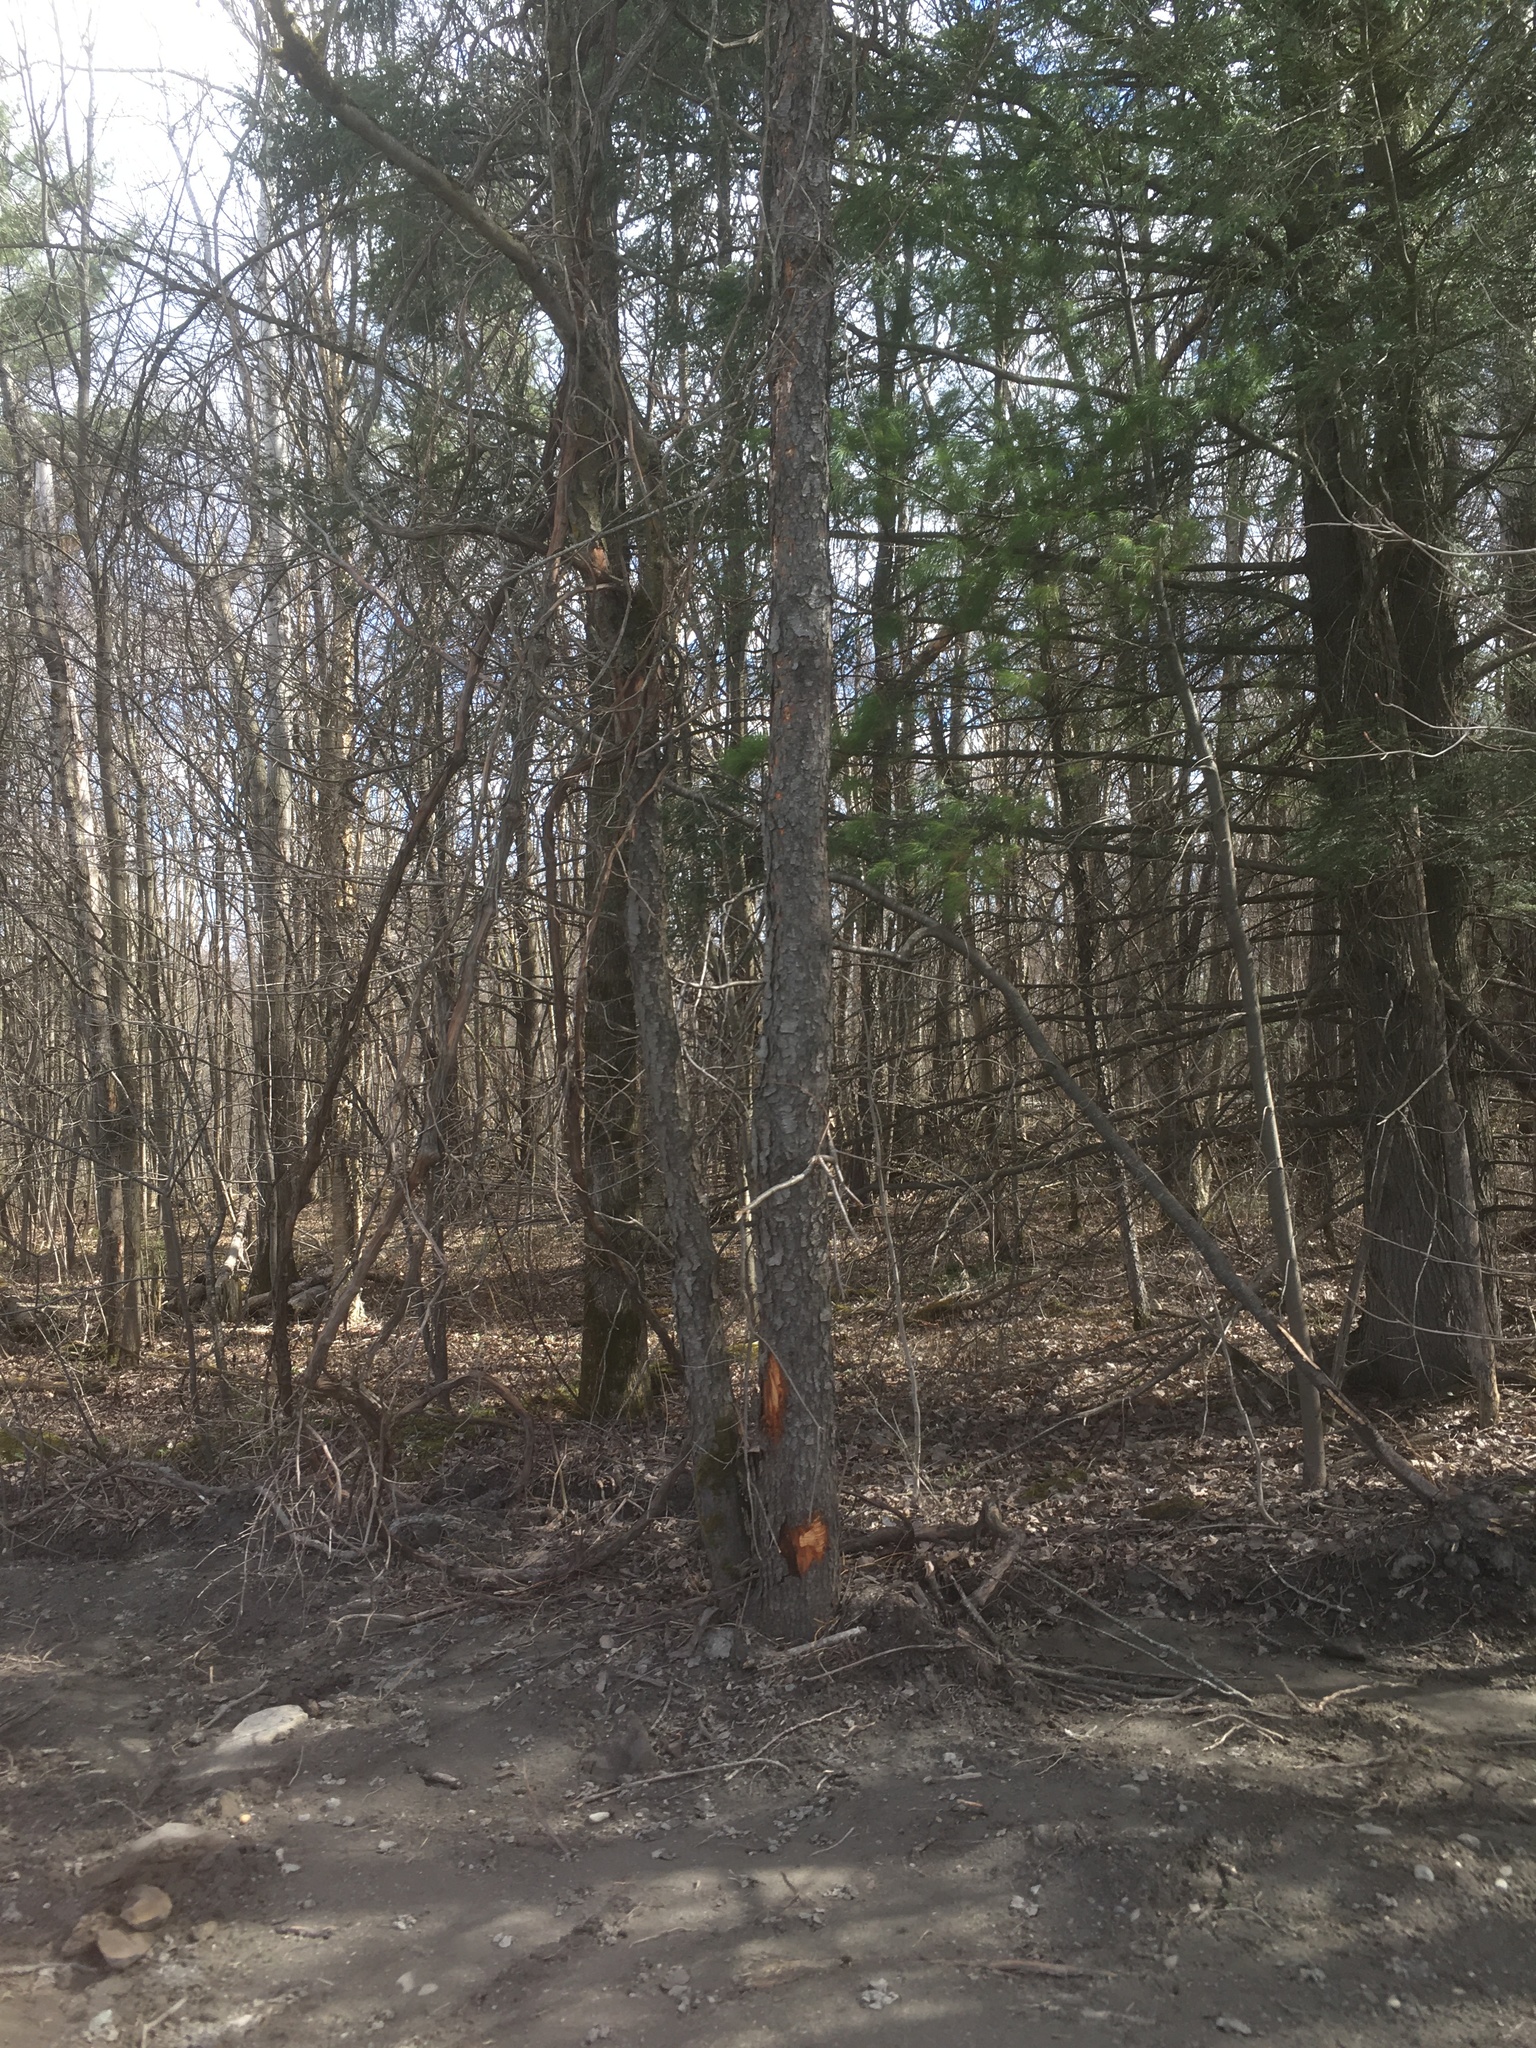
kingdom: Plantae
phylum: Tracheophyta
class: Magnoliopsida
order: Rosales
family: Rosaceae
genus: Prunus
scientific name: Prunus serotina
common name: Black cherry
